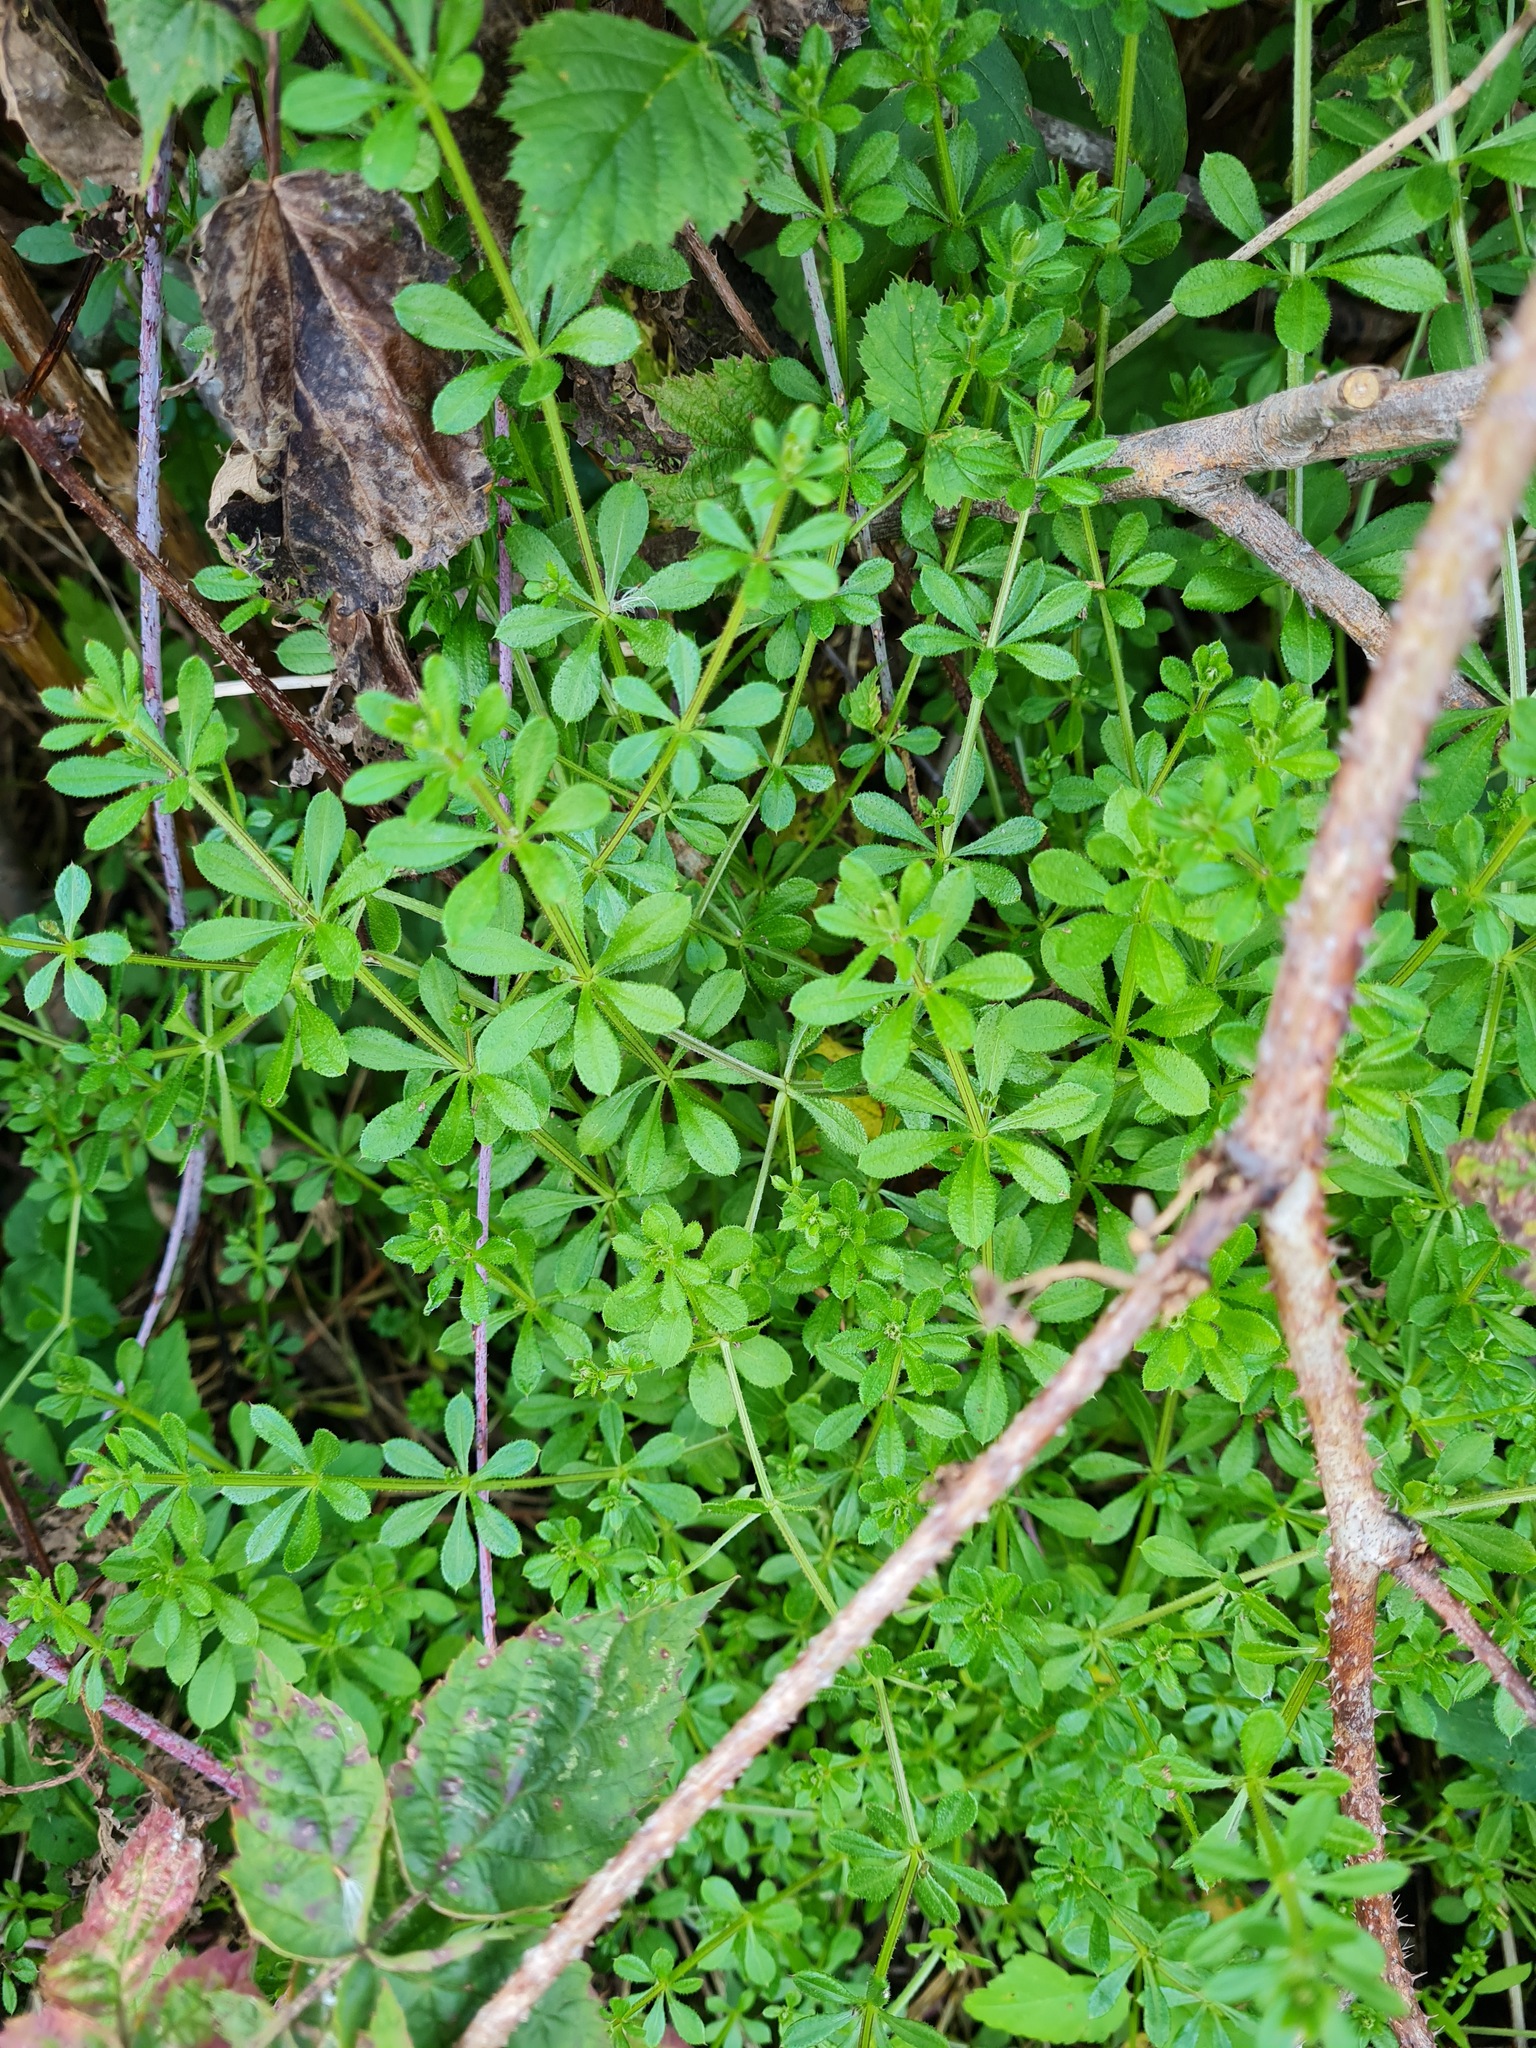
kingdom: Plantae
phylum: Tracheophyta
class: Magnoliopsida
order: Gentianales
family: Rubiaceae
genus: Galium
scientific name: Galium aparine
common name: Cleavers
